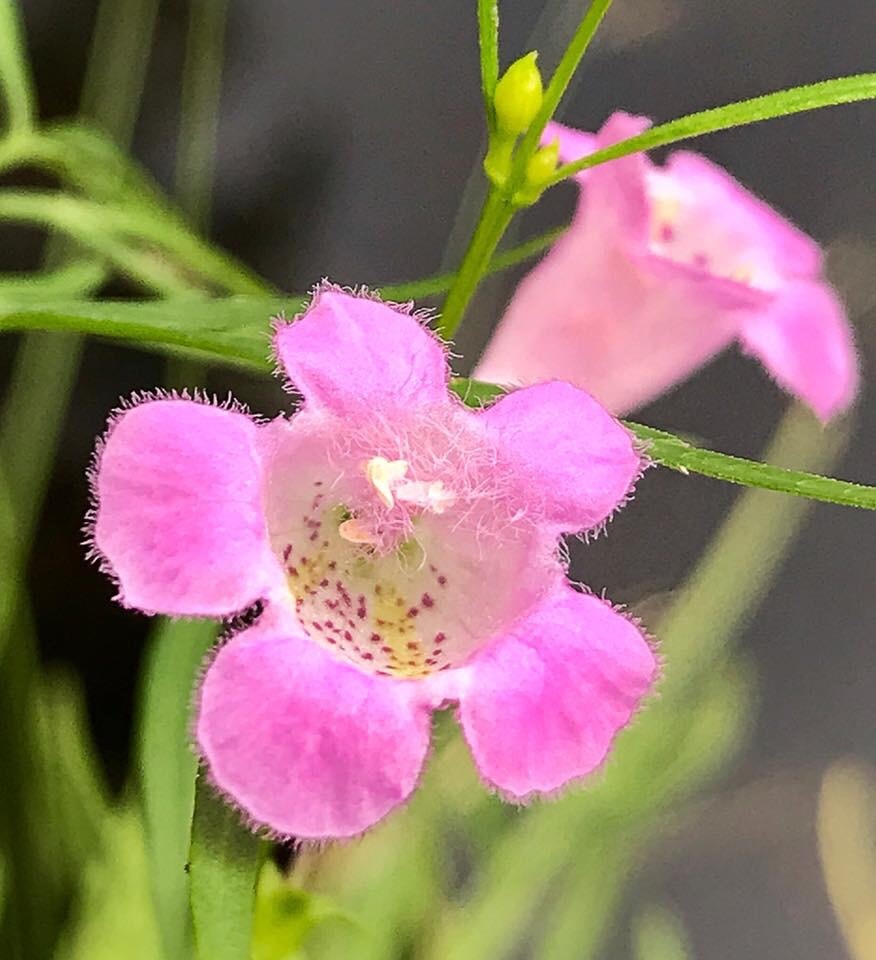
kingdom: Plantae
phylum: Tracheophyta
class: Magnoliopsida
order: Lamiales
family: Orobanchaceae
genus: Agalinis
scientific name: Agalinis purpurea
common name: Purple false foxglove
